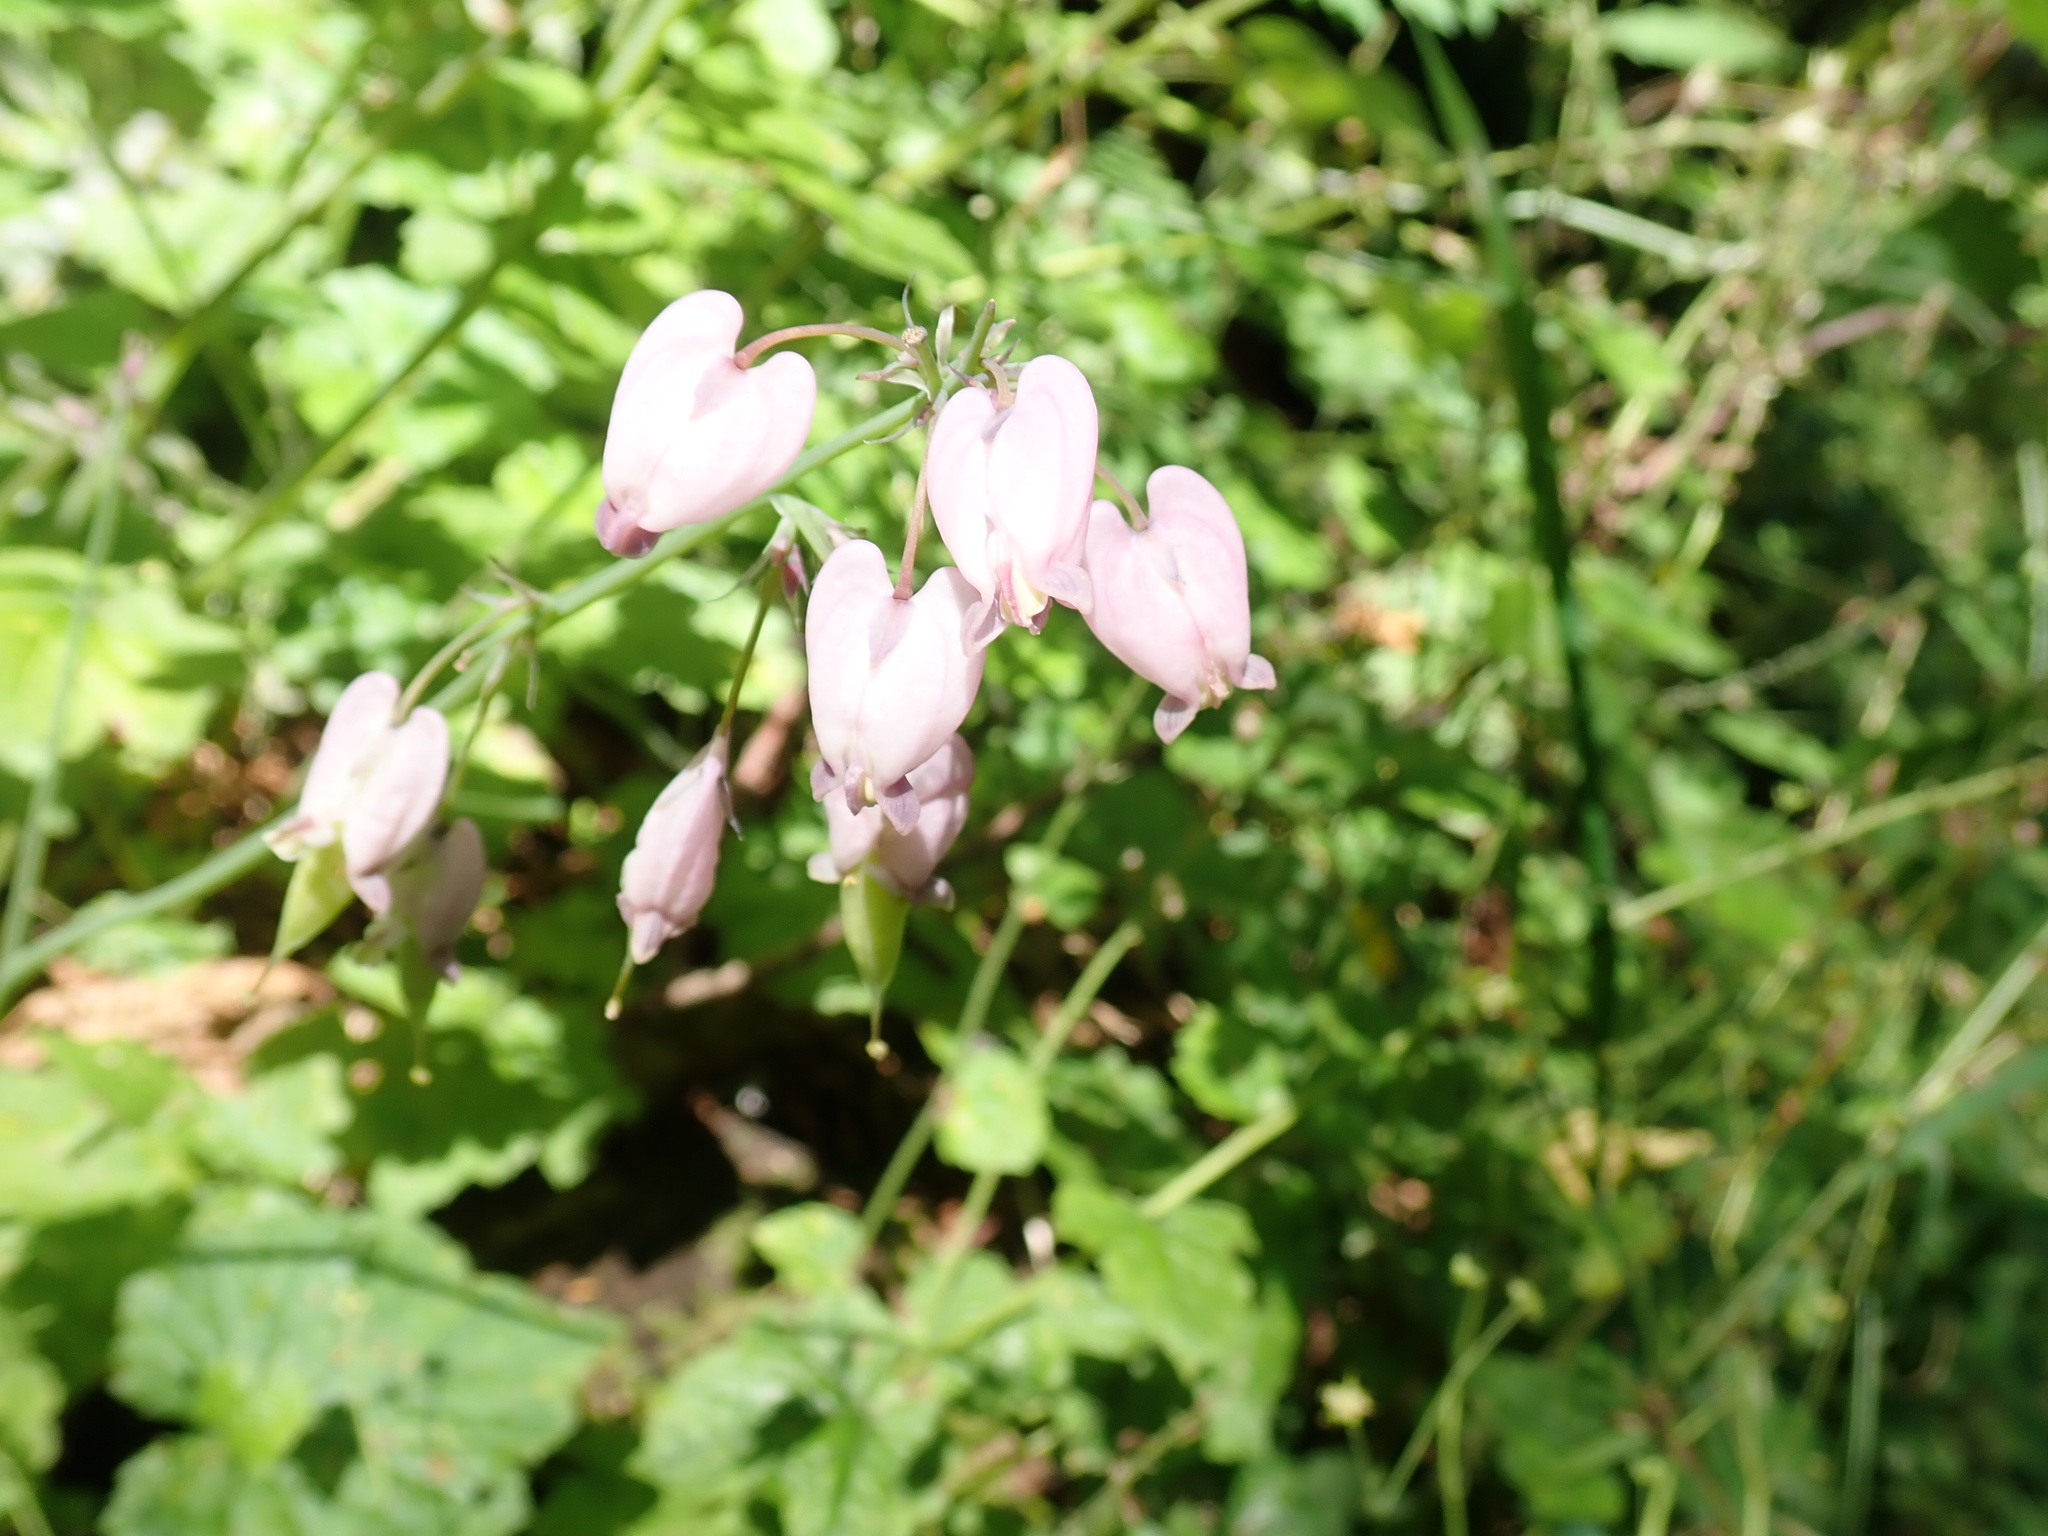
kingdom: Plantae
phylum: Tracheophyta
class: Magnoliopsida
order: Ranunculales
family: Papaveraceae
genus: Dicentra
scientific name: Dicentra formosa
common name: Bleeding-heart
